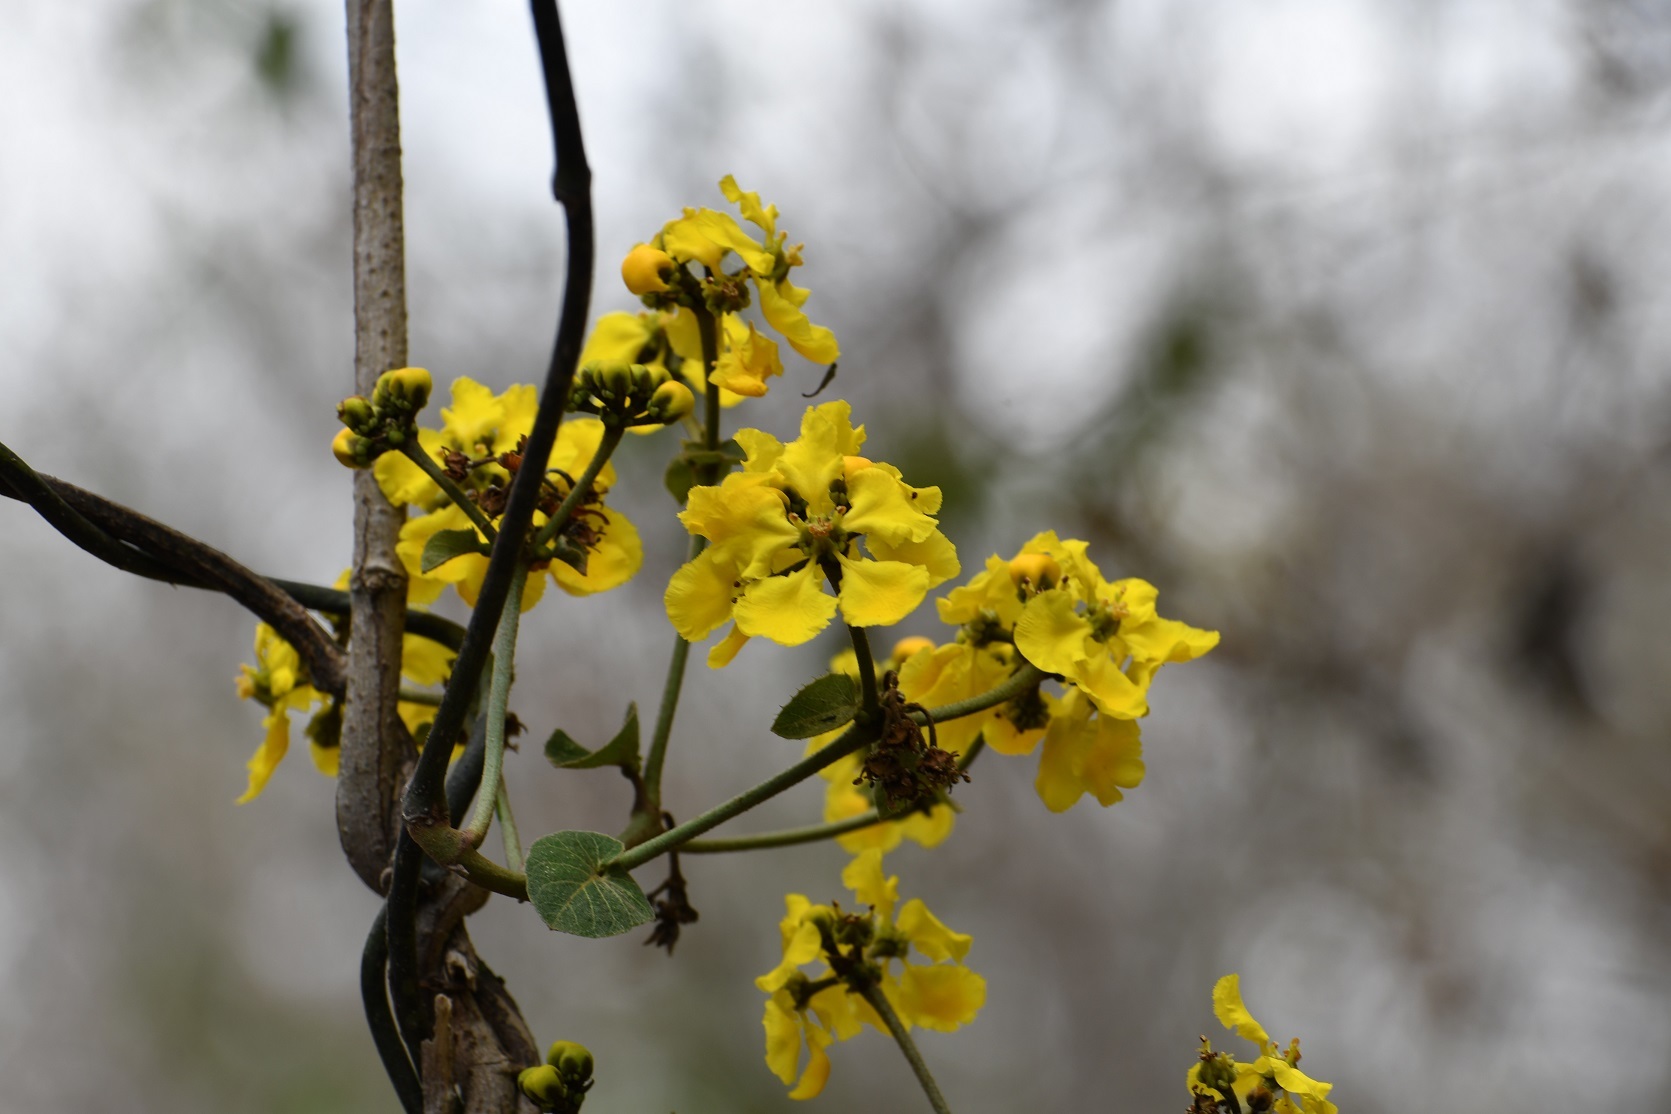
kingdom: Plantae
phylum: Tracheophyta
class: Magnoliopsida
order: Malpighiales
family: Malpighiaceae
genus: Stigmaphyllon
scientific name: Stigmaphyllon dichotomum
